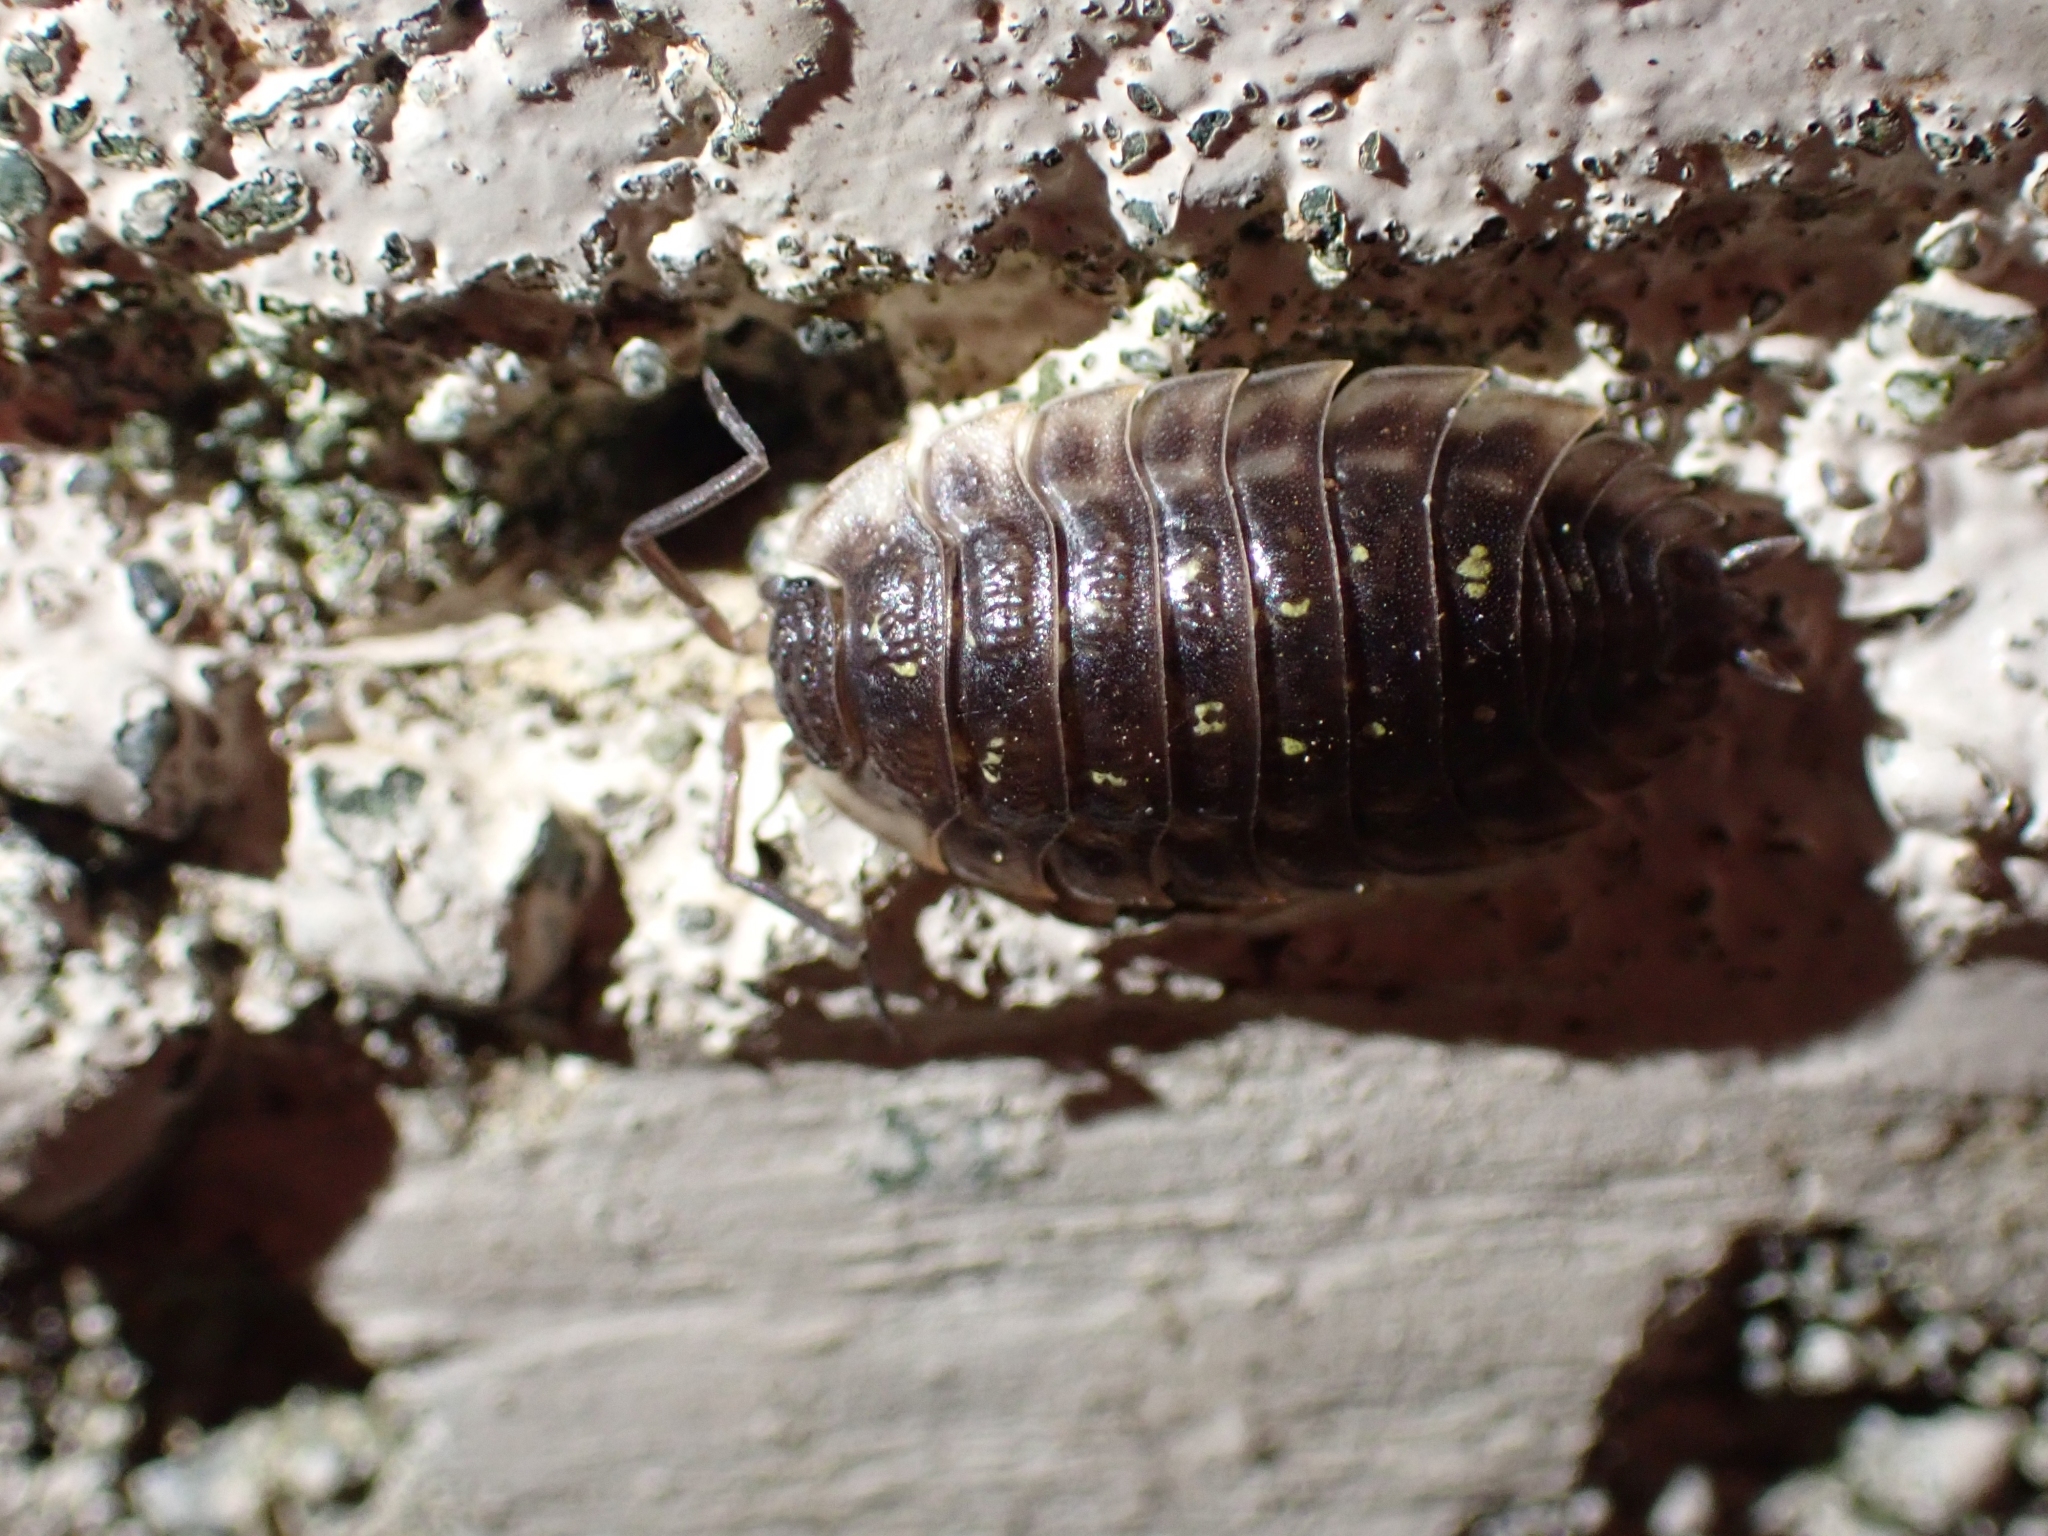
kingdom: Animalia
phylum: Arthropoda
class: Malacostraca
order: Isopoda
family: Oniscidae
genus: Oniscus
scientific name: Oniscus asellus
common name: Common shiny woodlouse
